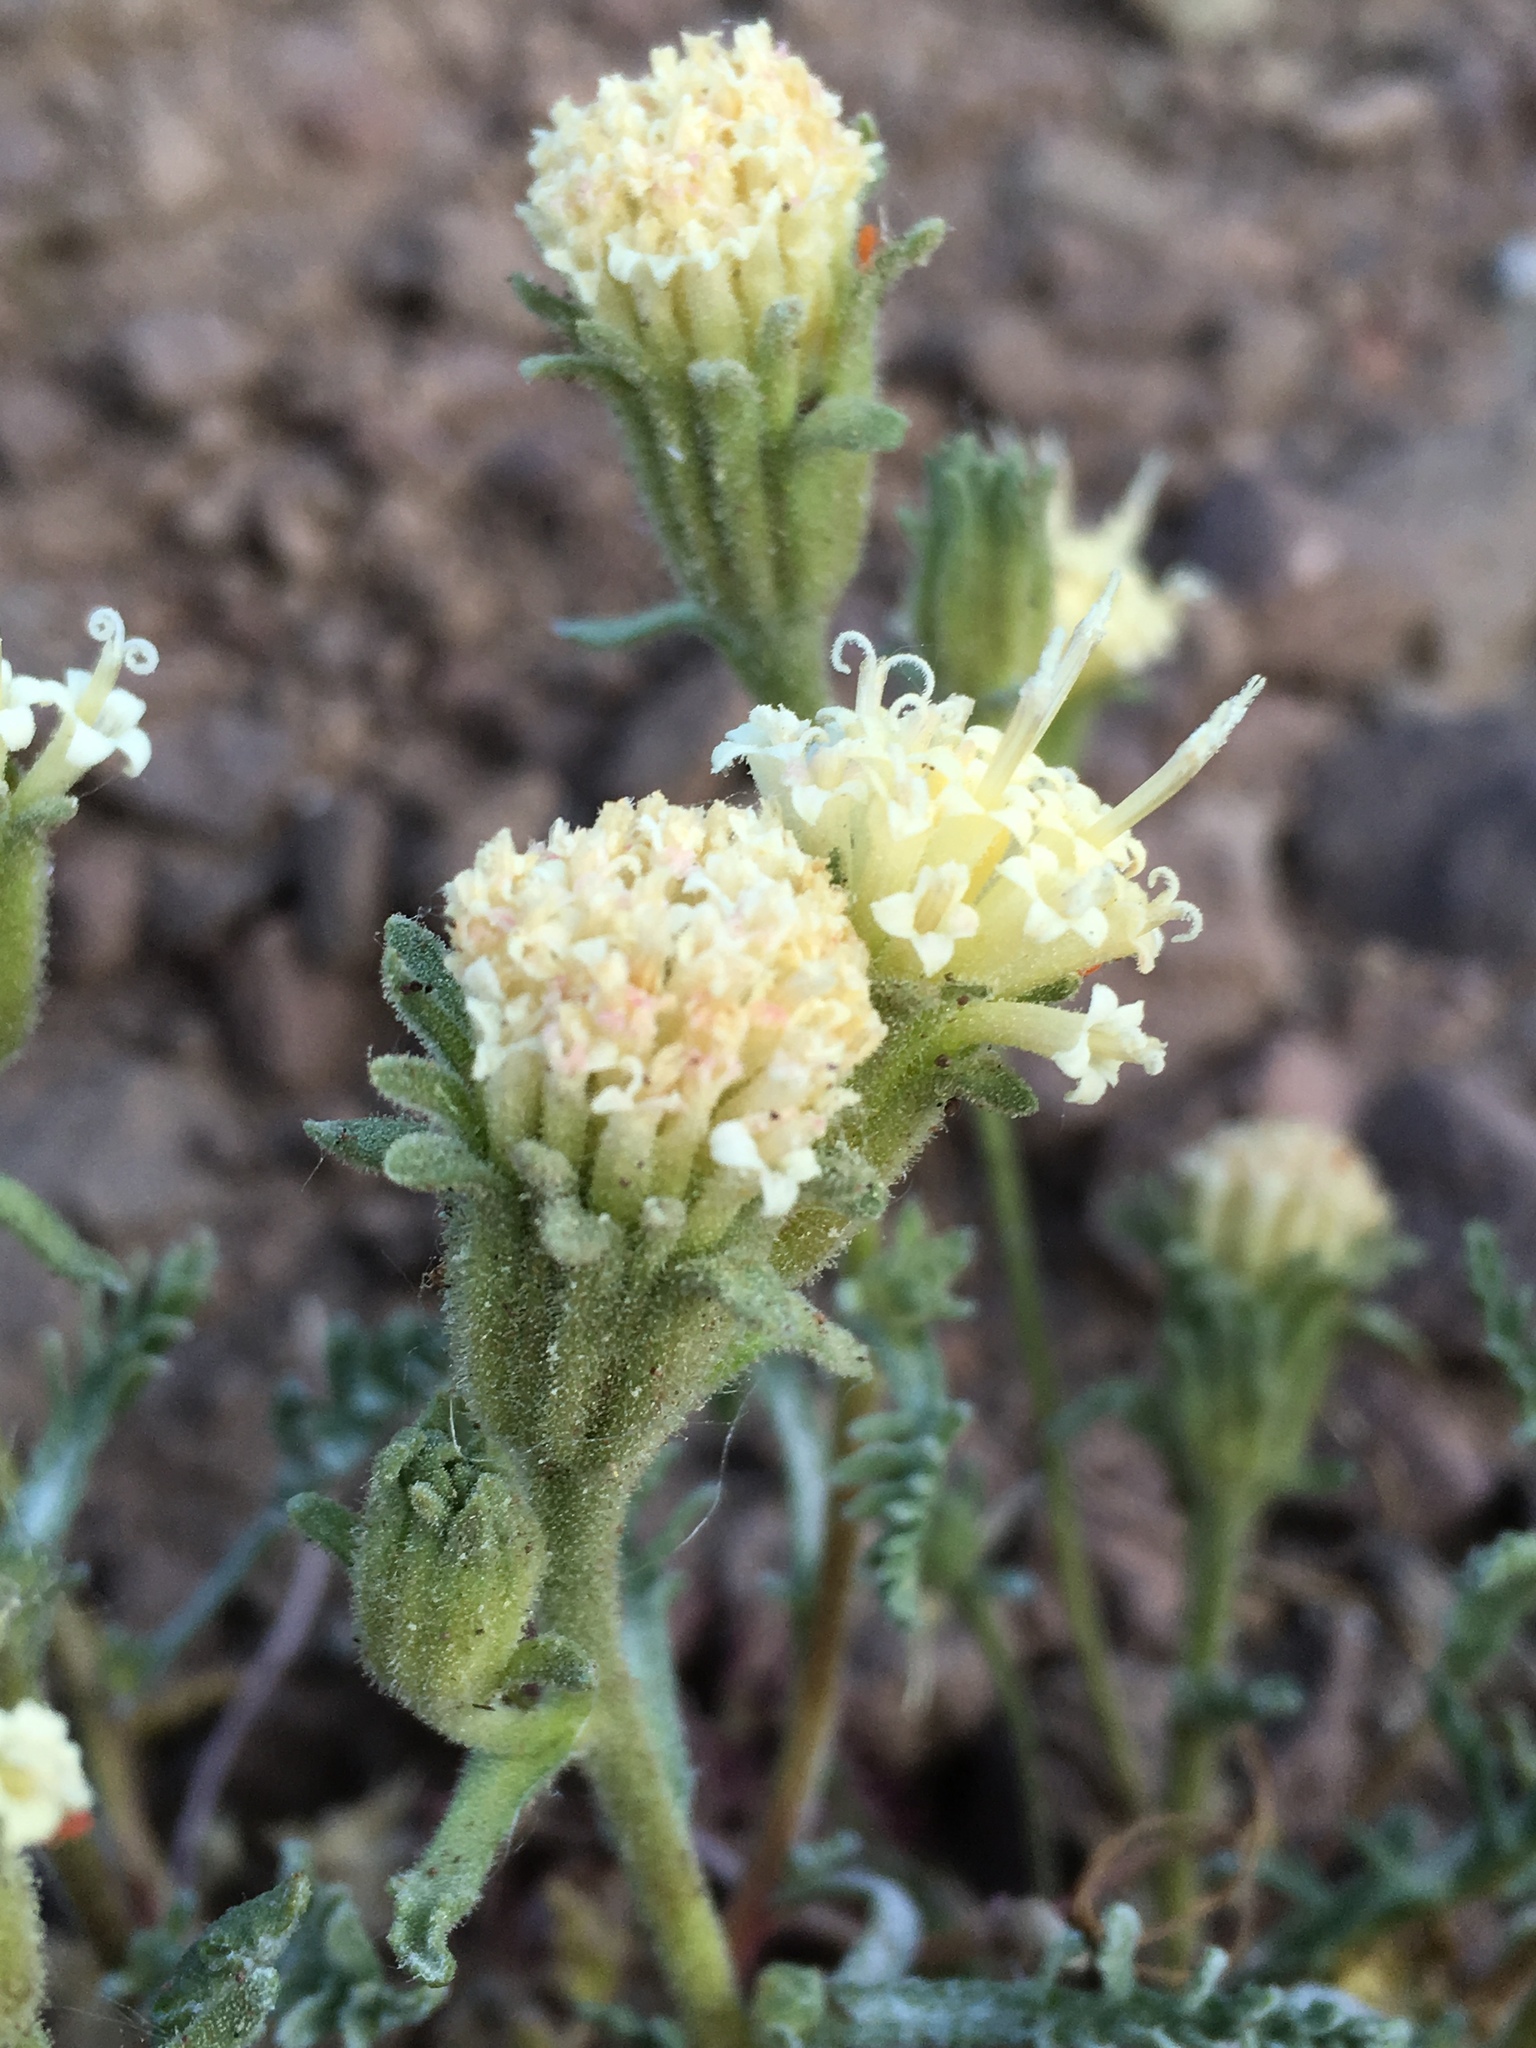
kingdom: Plantae
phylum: Tracheophyta
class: Magnoliopsida
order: Asterales
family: Asteraceae
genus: Chaenactis
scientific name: Chaenactis douglasii
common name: Hoary pincushion
